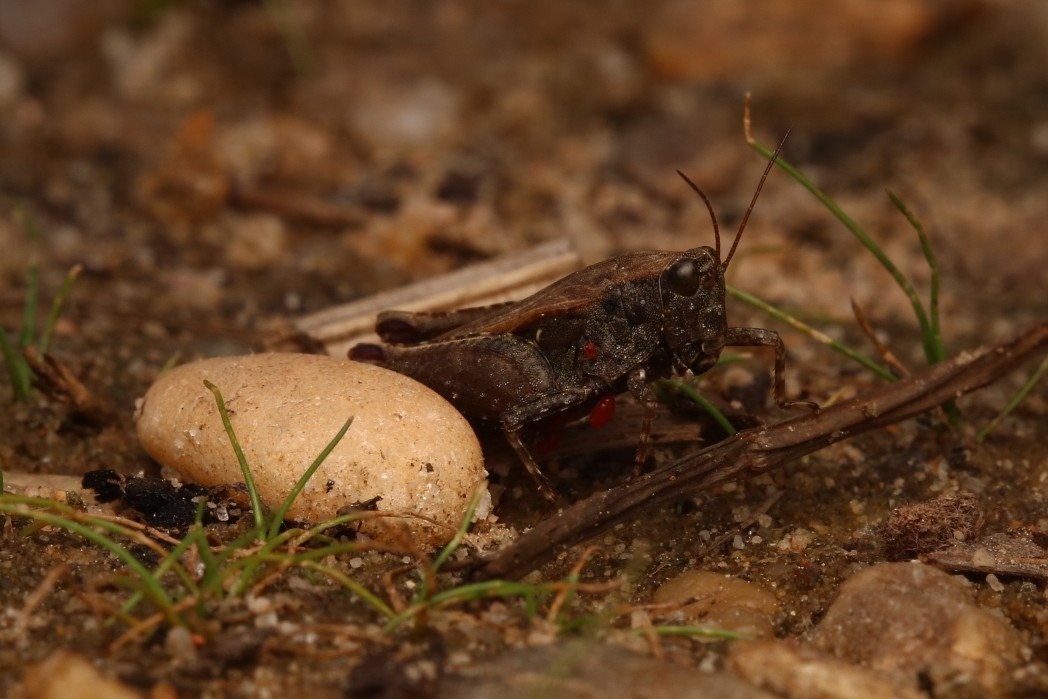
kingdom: Animalia
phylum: Arthropoda
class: Insecta
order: Orthoptera
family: Tetrigidae
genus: Tettigidea
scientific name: Tettigidea laterale
